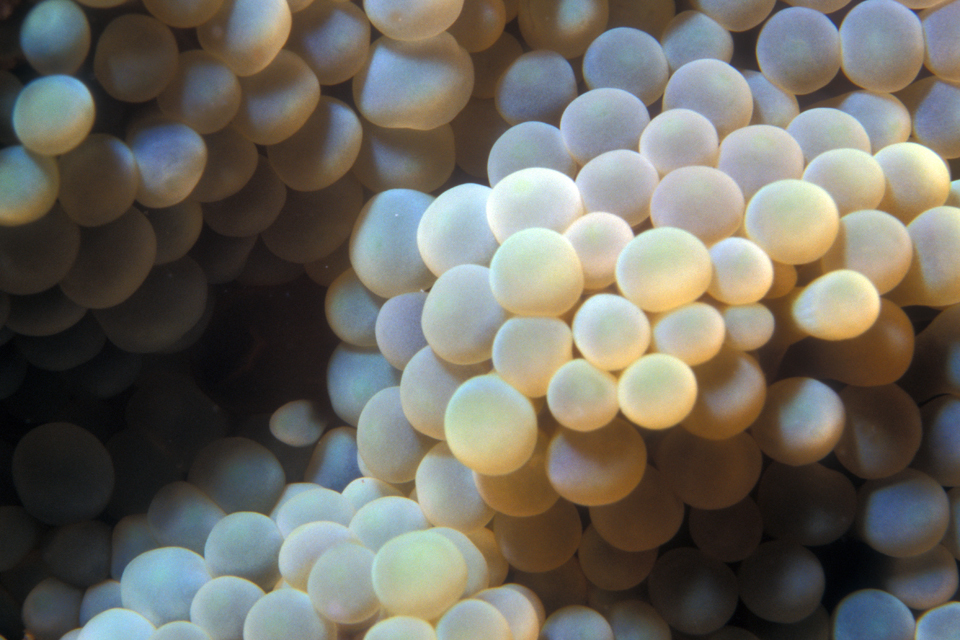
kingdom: Animalia
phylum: Cnidaria
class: Anthozoa
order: Corallimorpharia
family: Ricordeidae
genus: Ricordea
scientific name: Ricordea florida
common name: False coral
